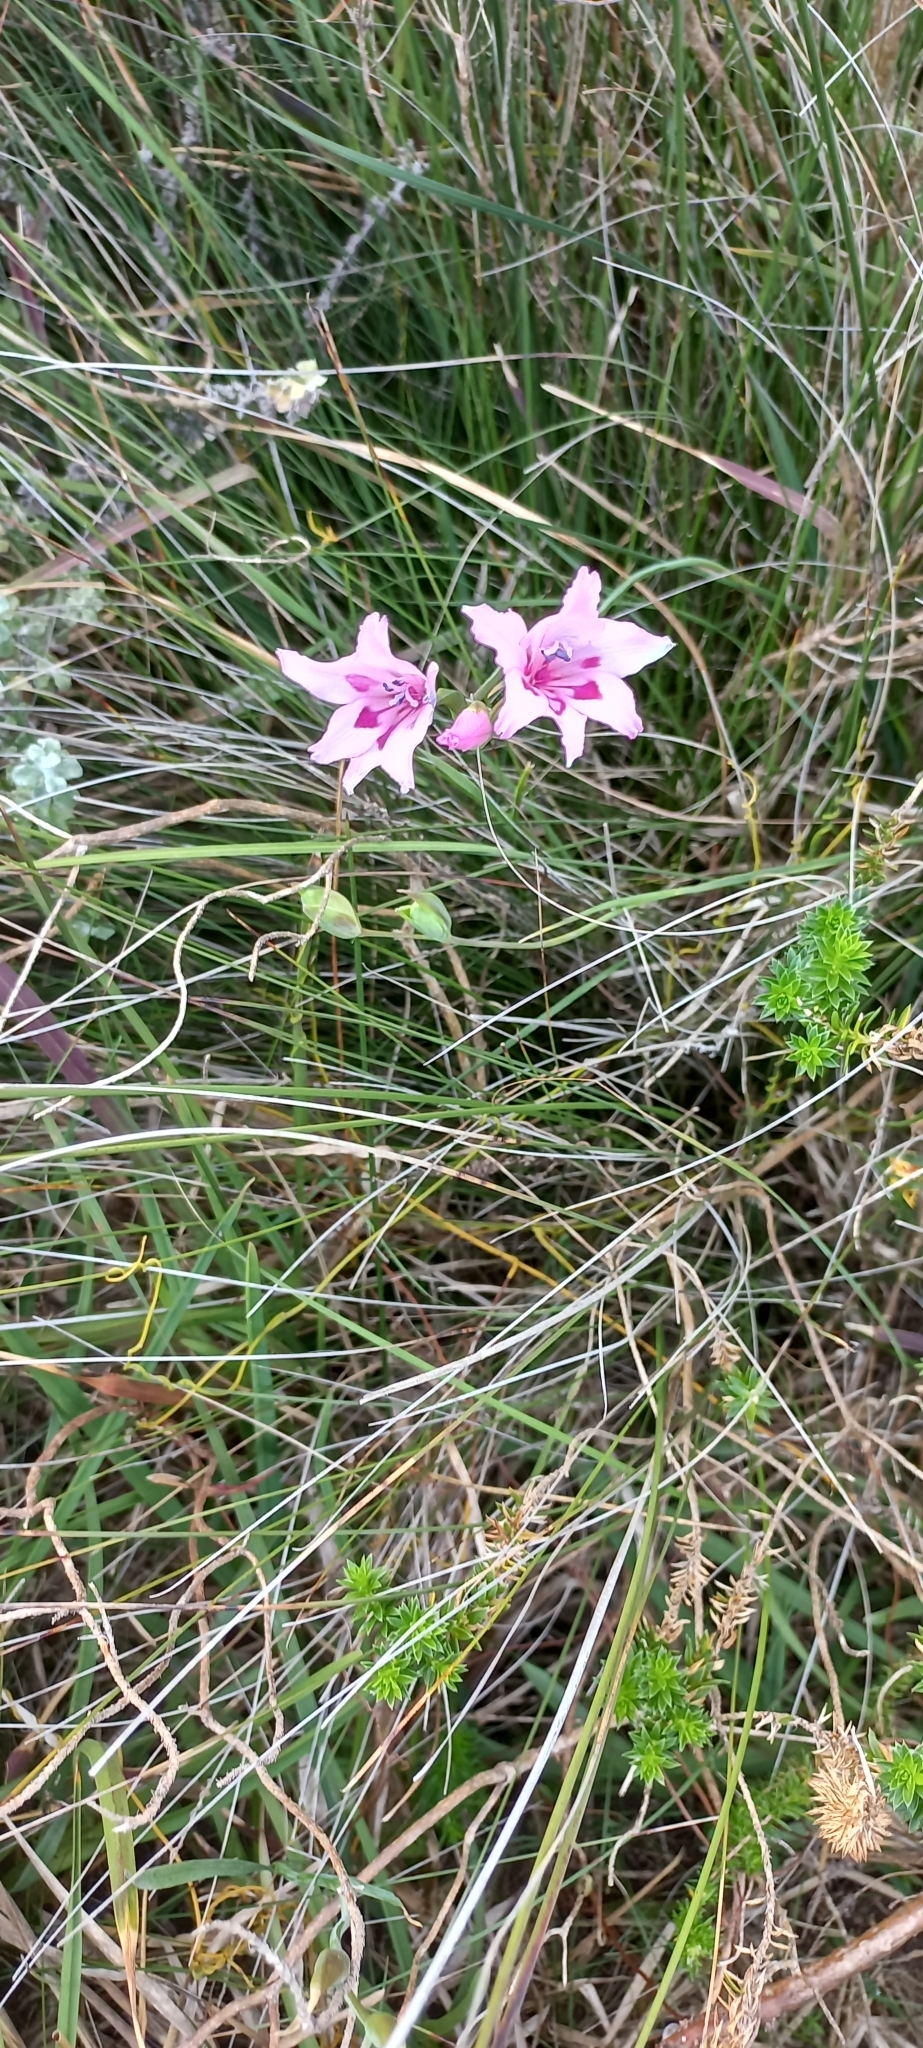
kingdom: Plantae
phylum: Tracheophyta
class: Liliopsida
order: Asparagales
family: Iridaceae
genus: Gladiolus
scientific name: Gladiolus carneus
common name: Painted-lady
